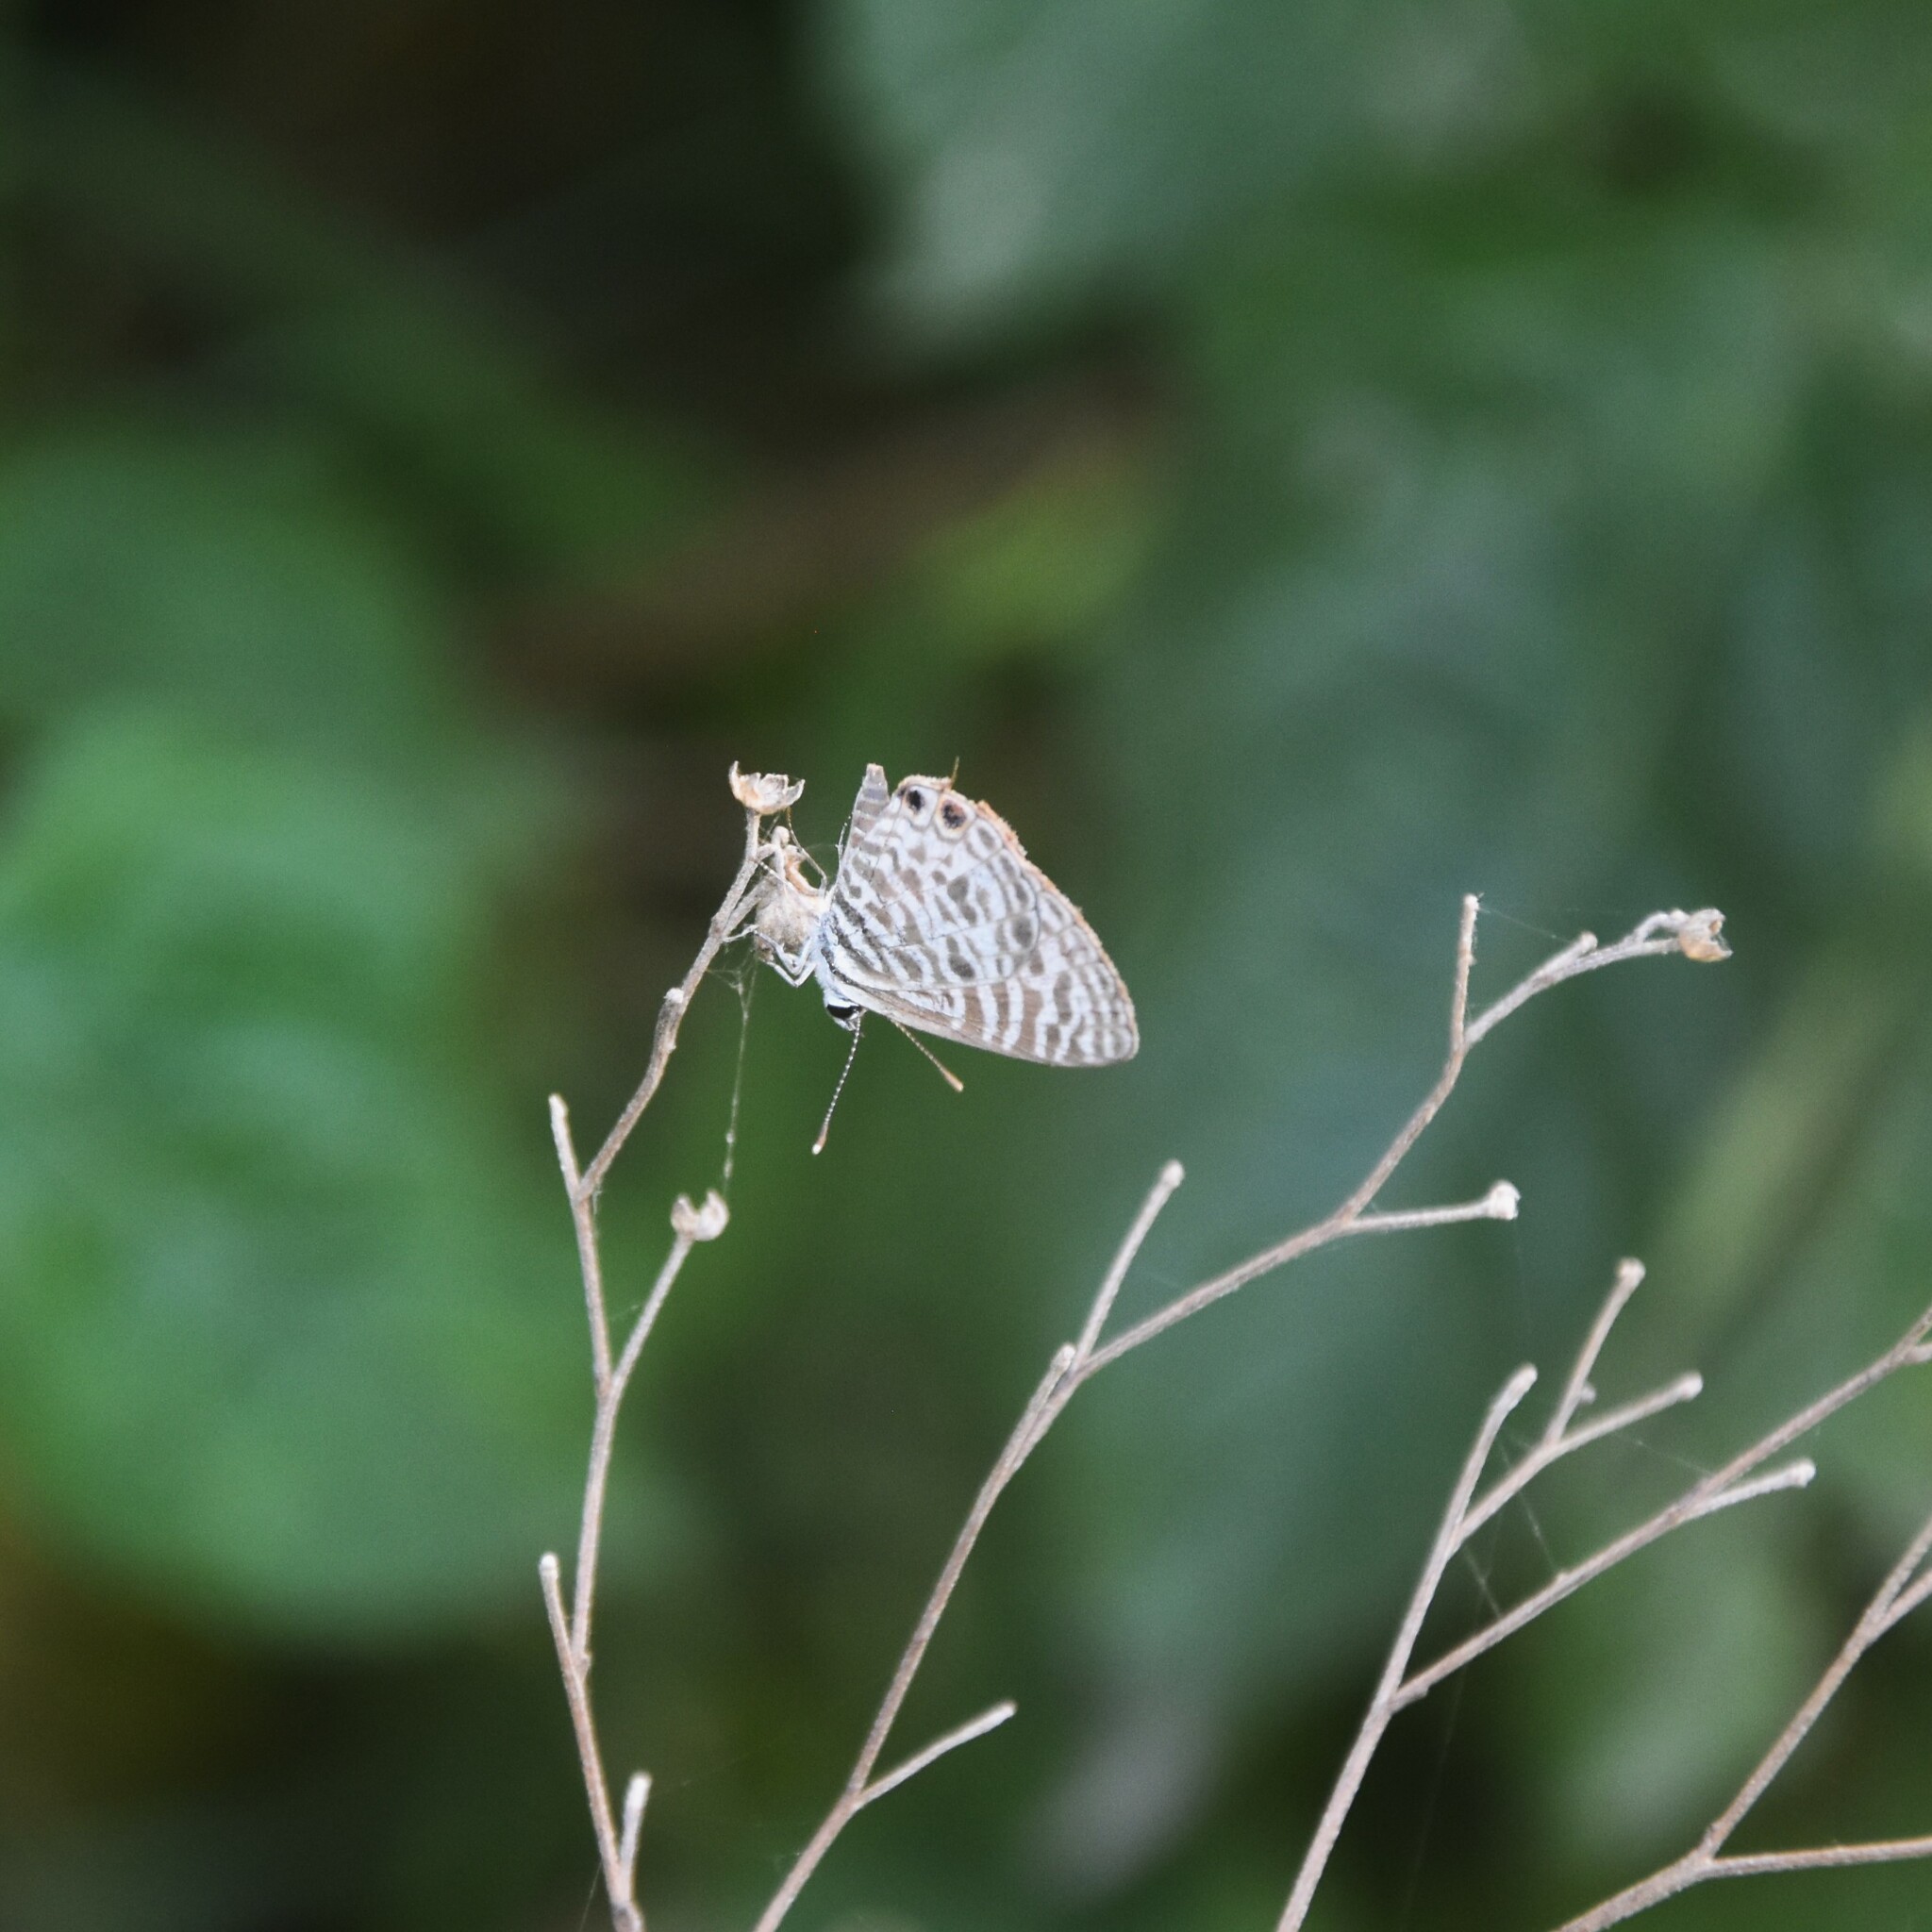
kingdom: Animalia
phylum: Arthropoda
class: Insecta
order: Lepidoptera
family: Lycaenidae
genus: Leptotes
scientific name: Leptotes plinius
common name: Zebra blue
